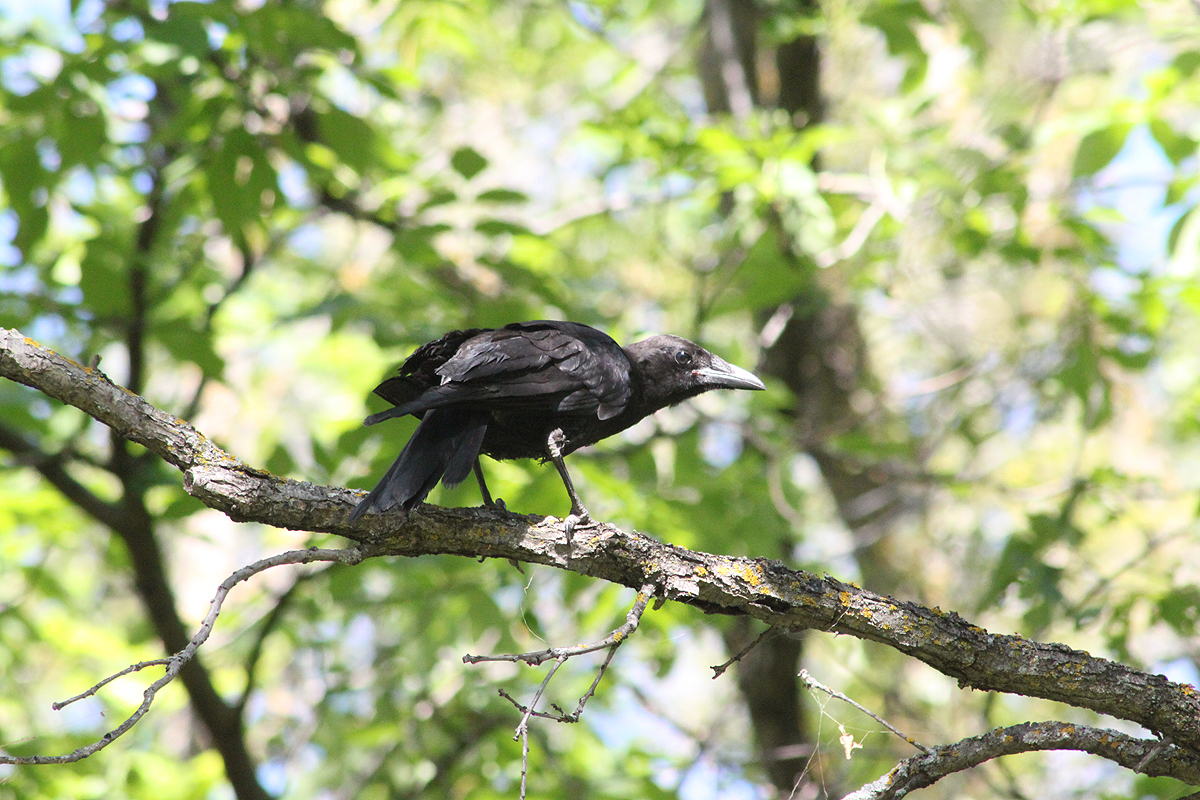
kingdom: Animalia
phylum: Chordata
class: Aves
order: Passeriformes
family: Corvidae
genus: Corvus
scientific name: Corvus brachyrhynchos
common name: American crow
